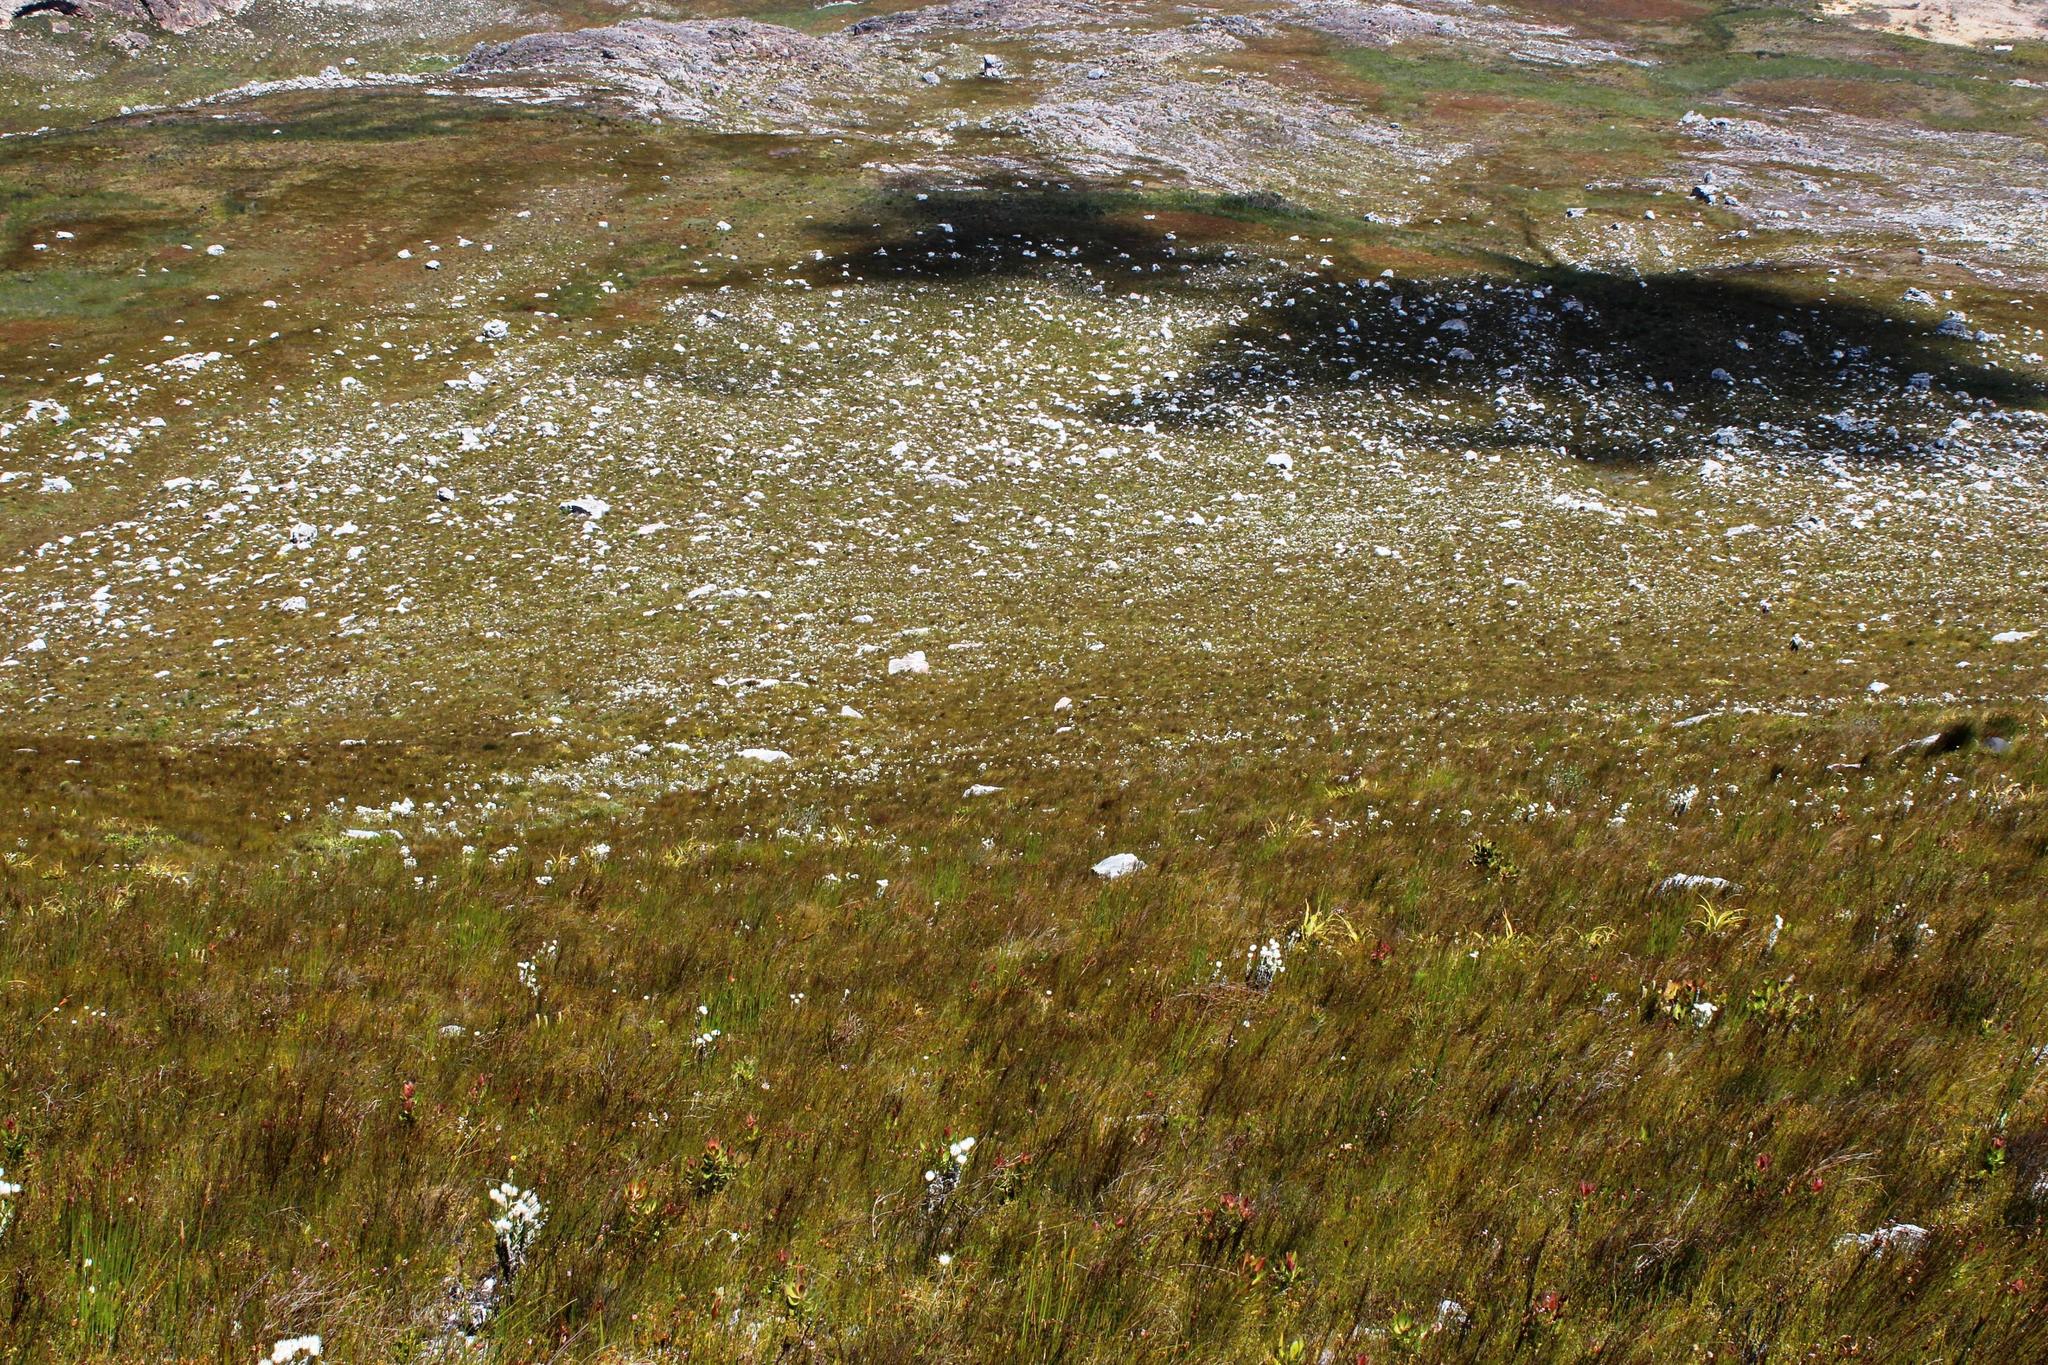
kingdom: Plantae
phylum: Tracheophyta
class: Magnoliopsida
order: Asterales
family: Asteraceae
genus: Syncarpha
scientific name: Syncarpha vestita
